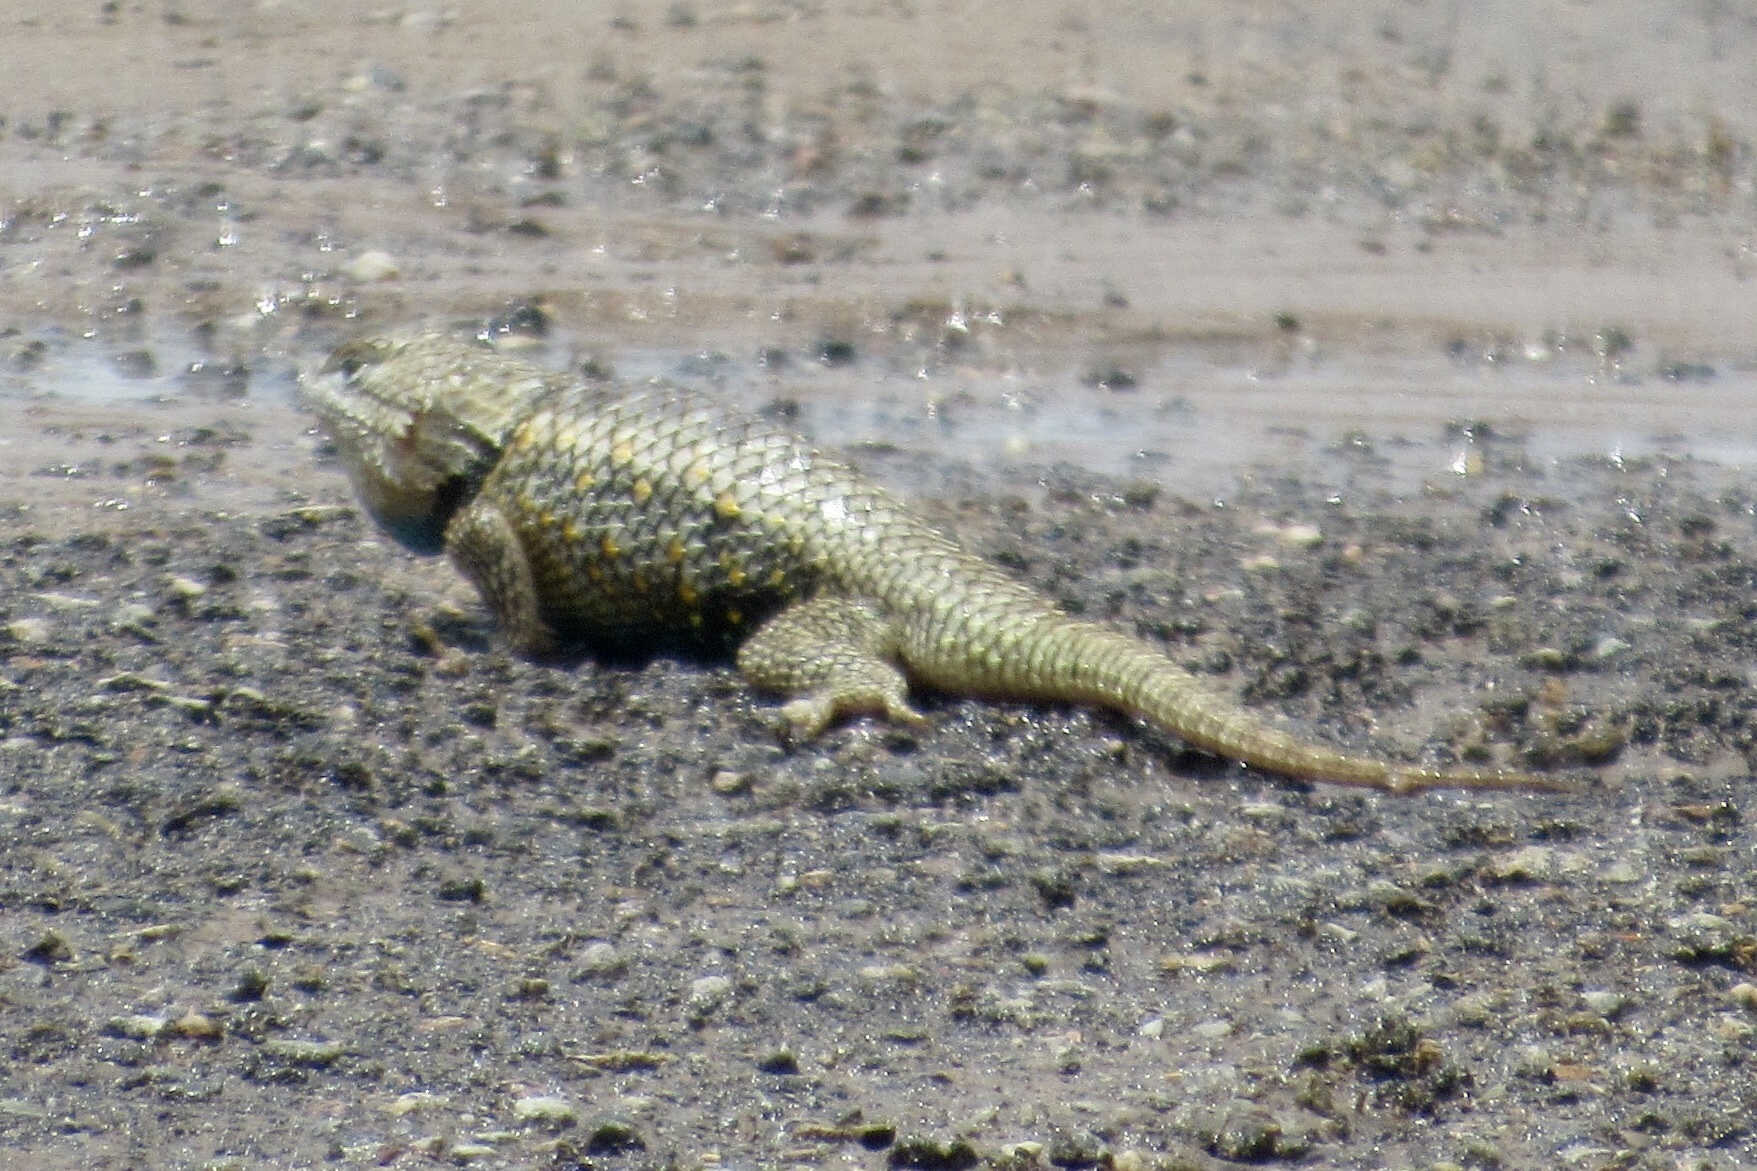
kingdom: Animalia
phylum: Chordata
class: Squamata
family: Phrynosomatidae
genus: Sceloporus
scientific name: Sceloporus magister
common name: Desert spiny lizard
